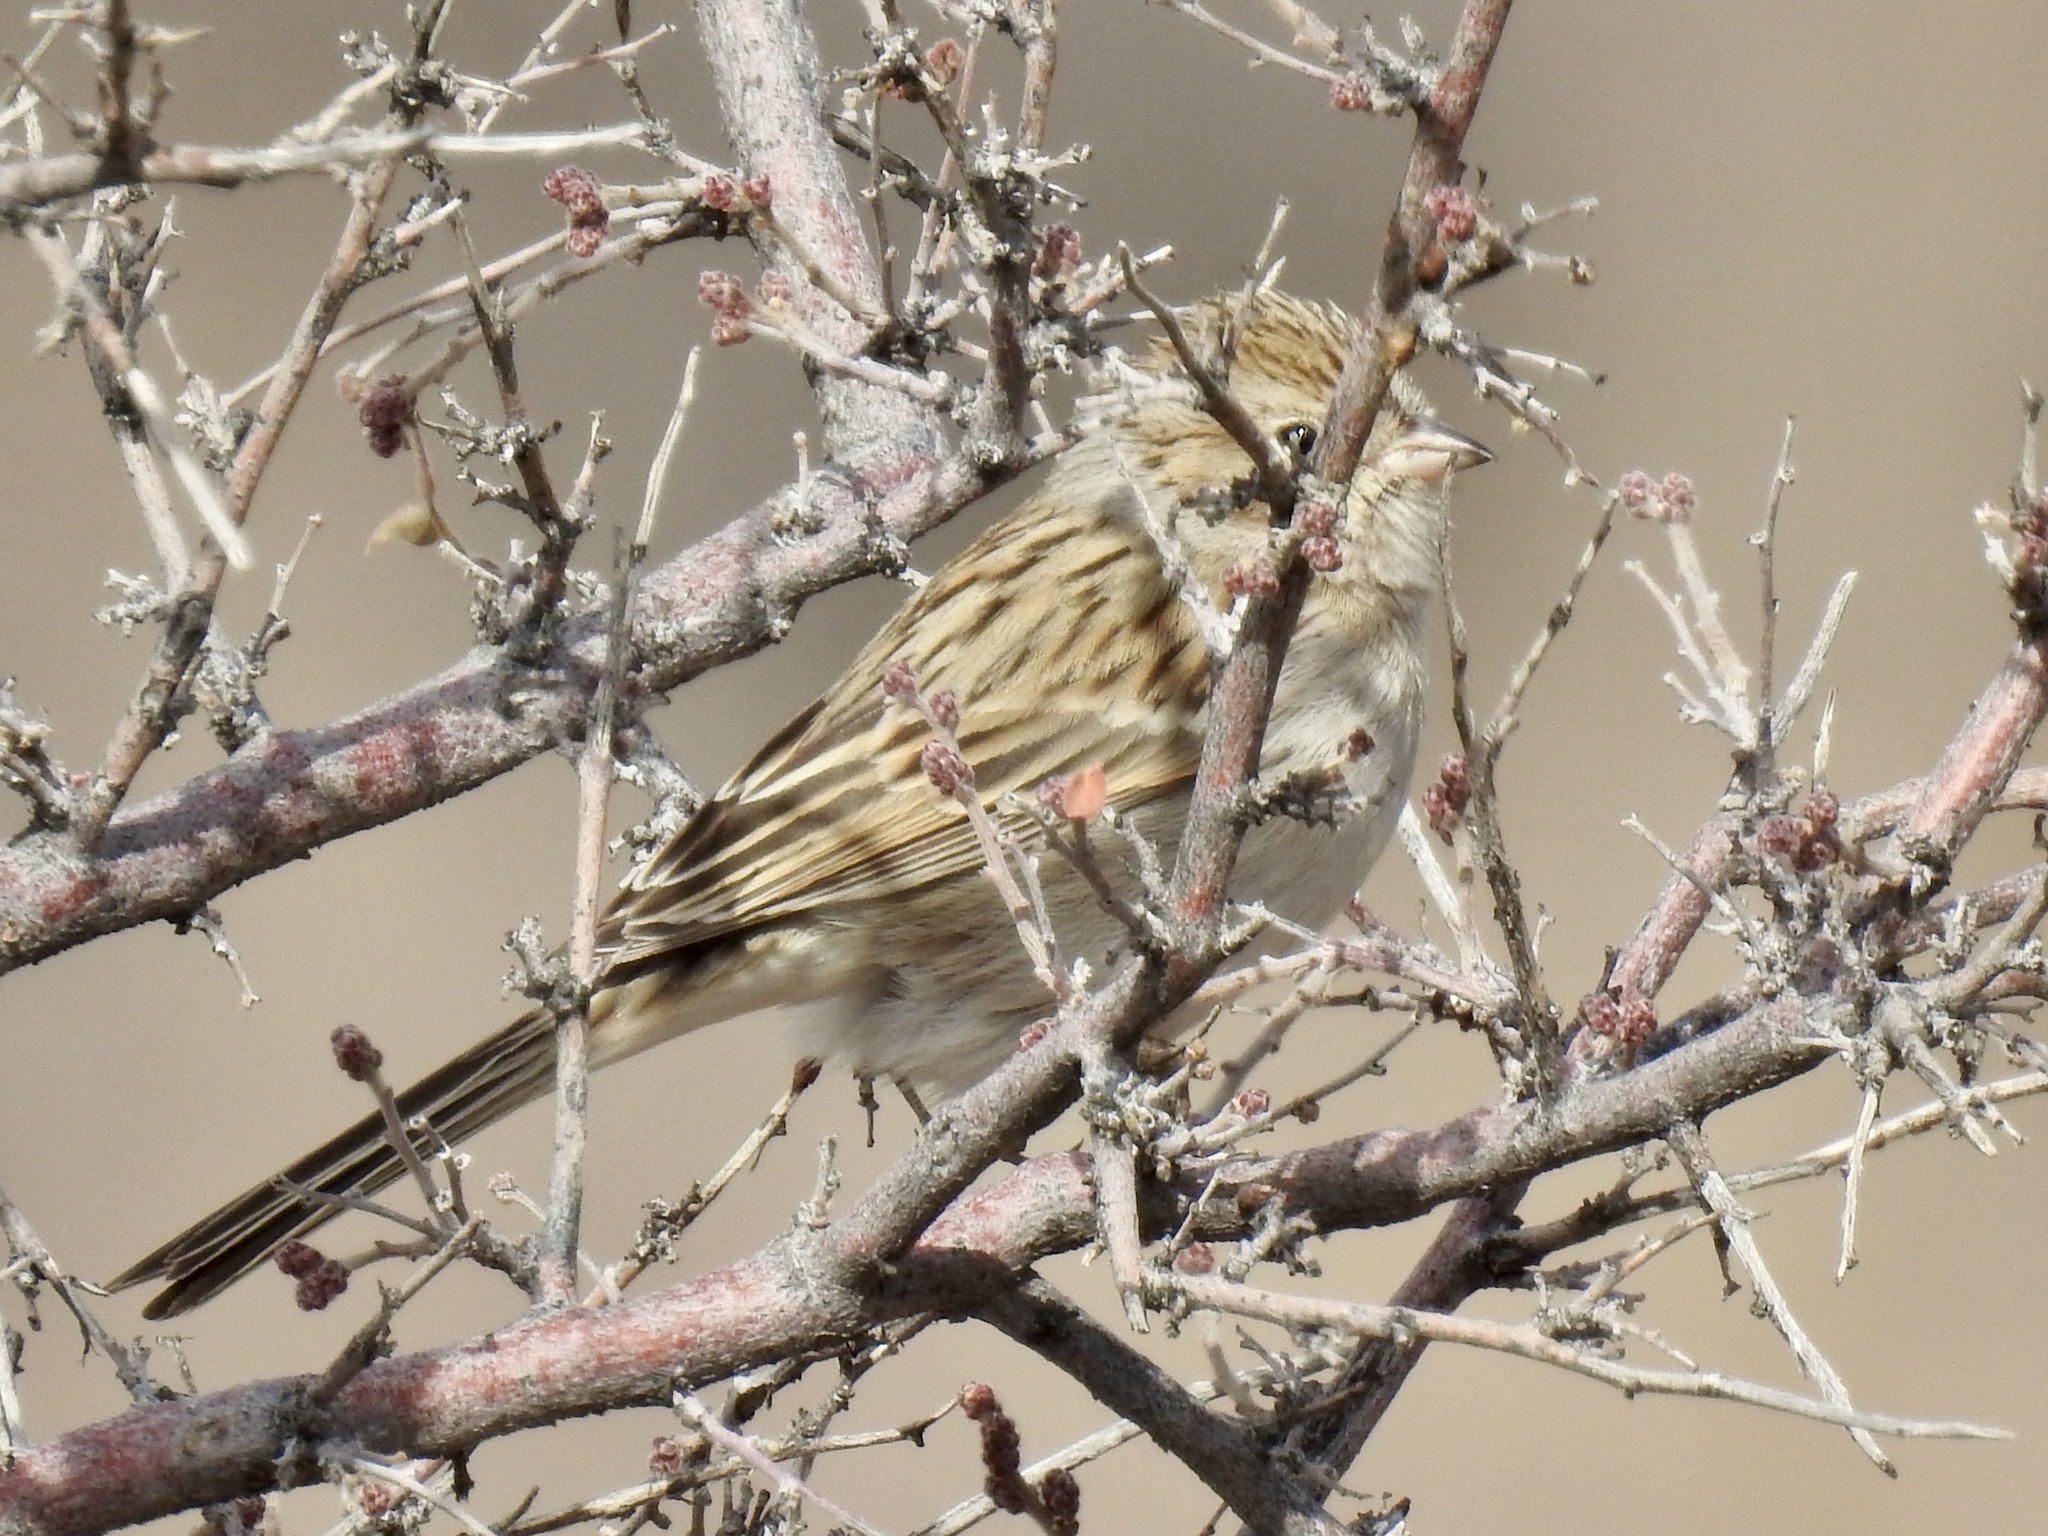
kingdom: Animalia
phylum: Chordata
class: Aves
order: Passeriformes
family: Passerellidae
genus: Spizella
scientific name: Spizella breweri
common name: Brewer's sparrow
